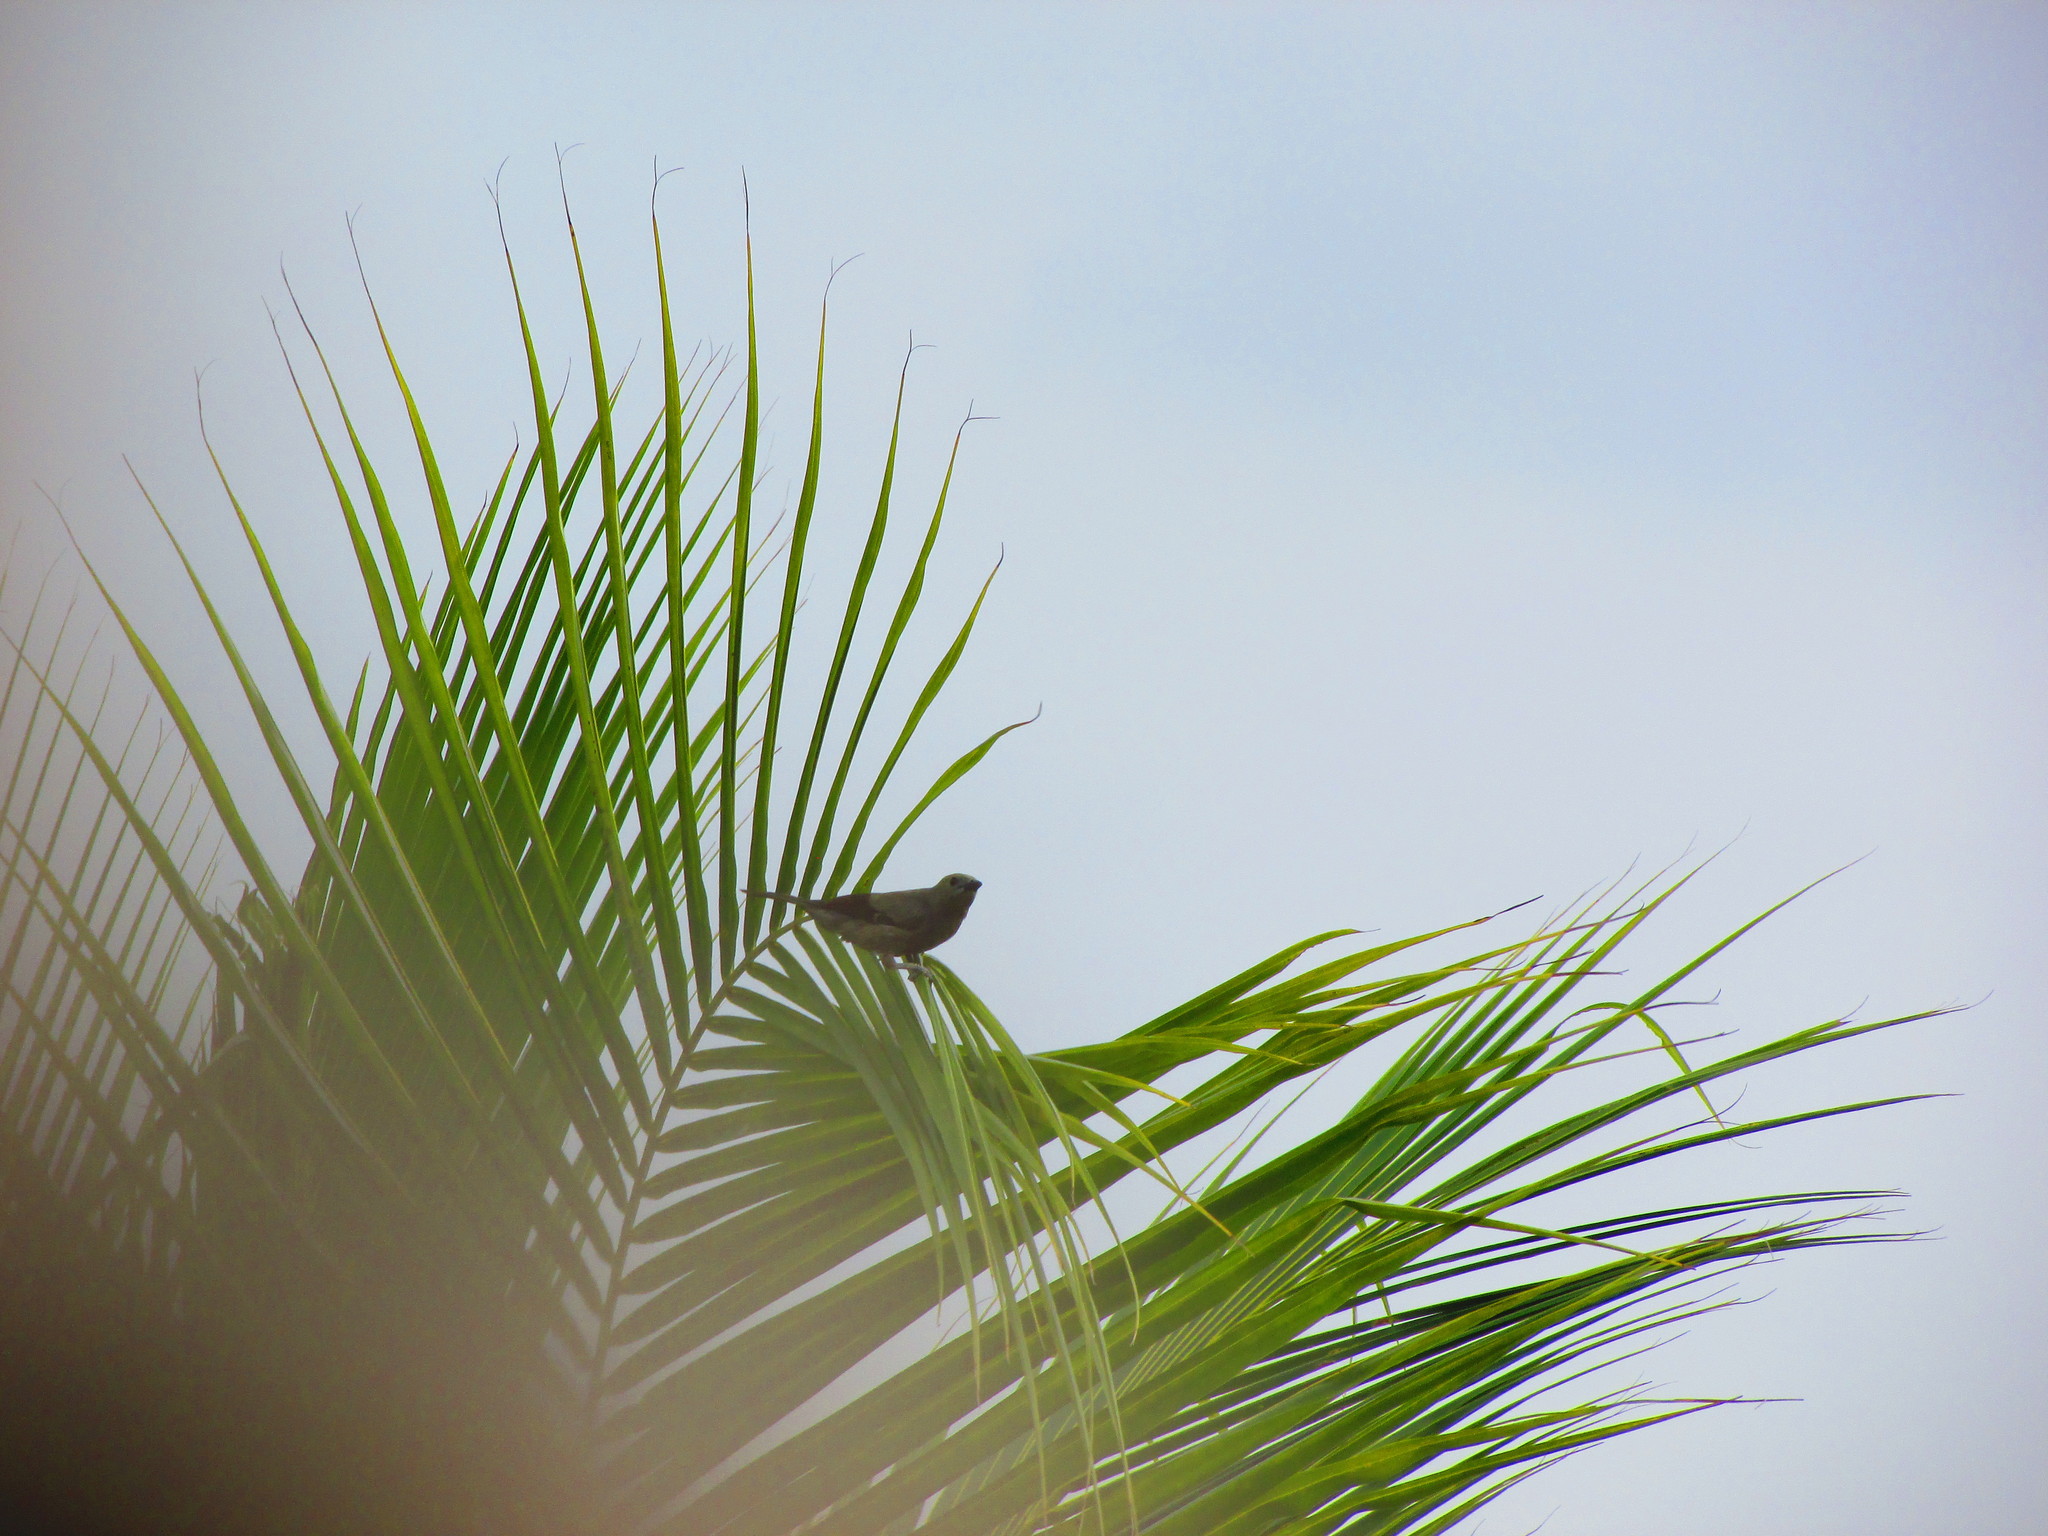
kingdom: Animalia
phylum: Chordata
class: Aves
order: Passeriformes
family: Thraupidae
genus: Thraupis
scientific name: Thraupis palmarum
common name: Palm tanager
